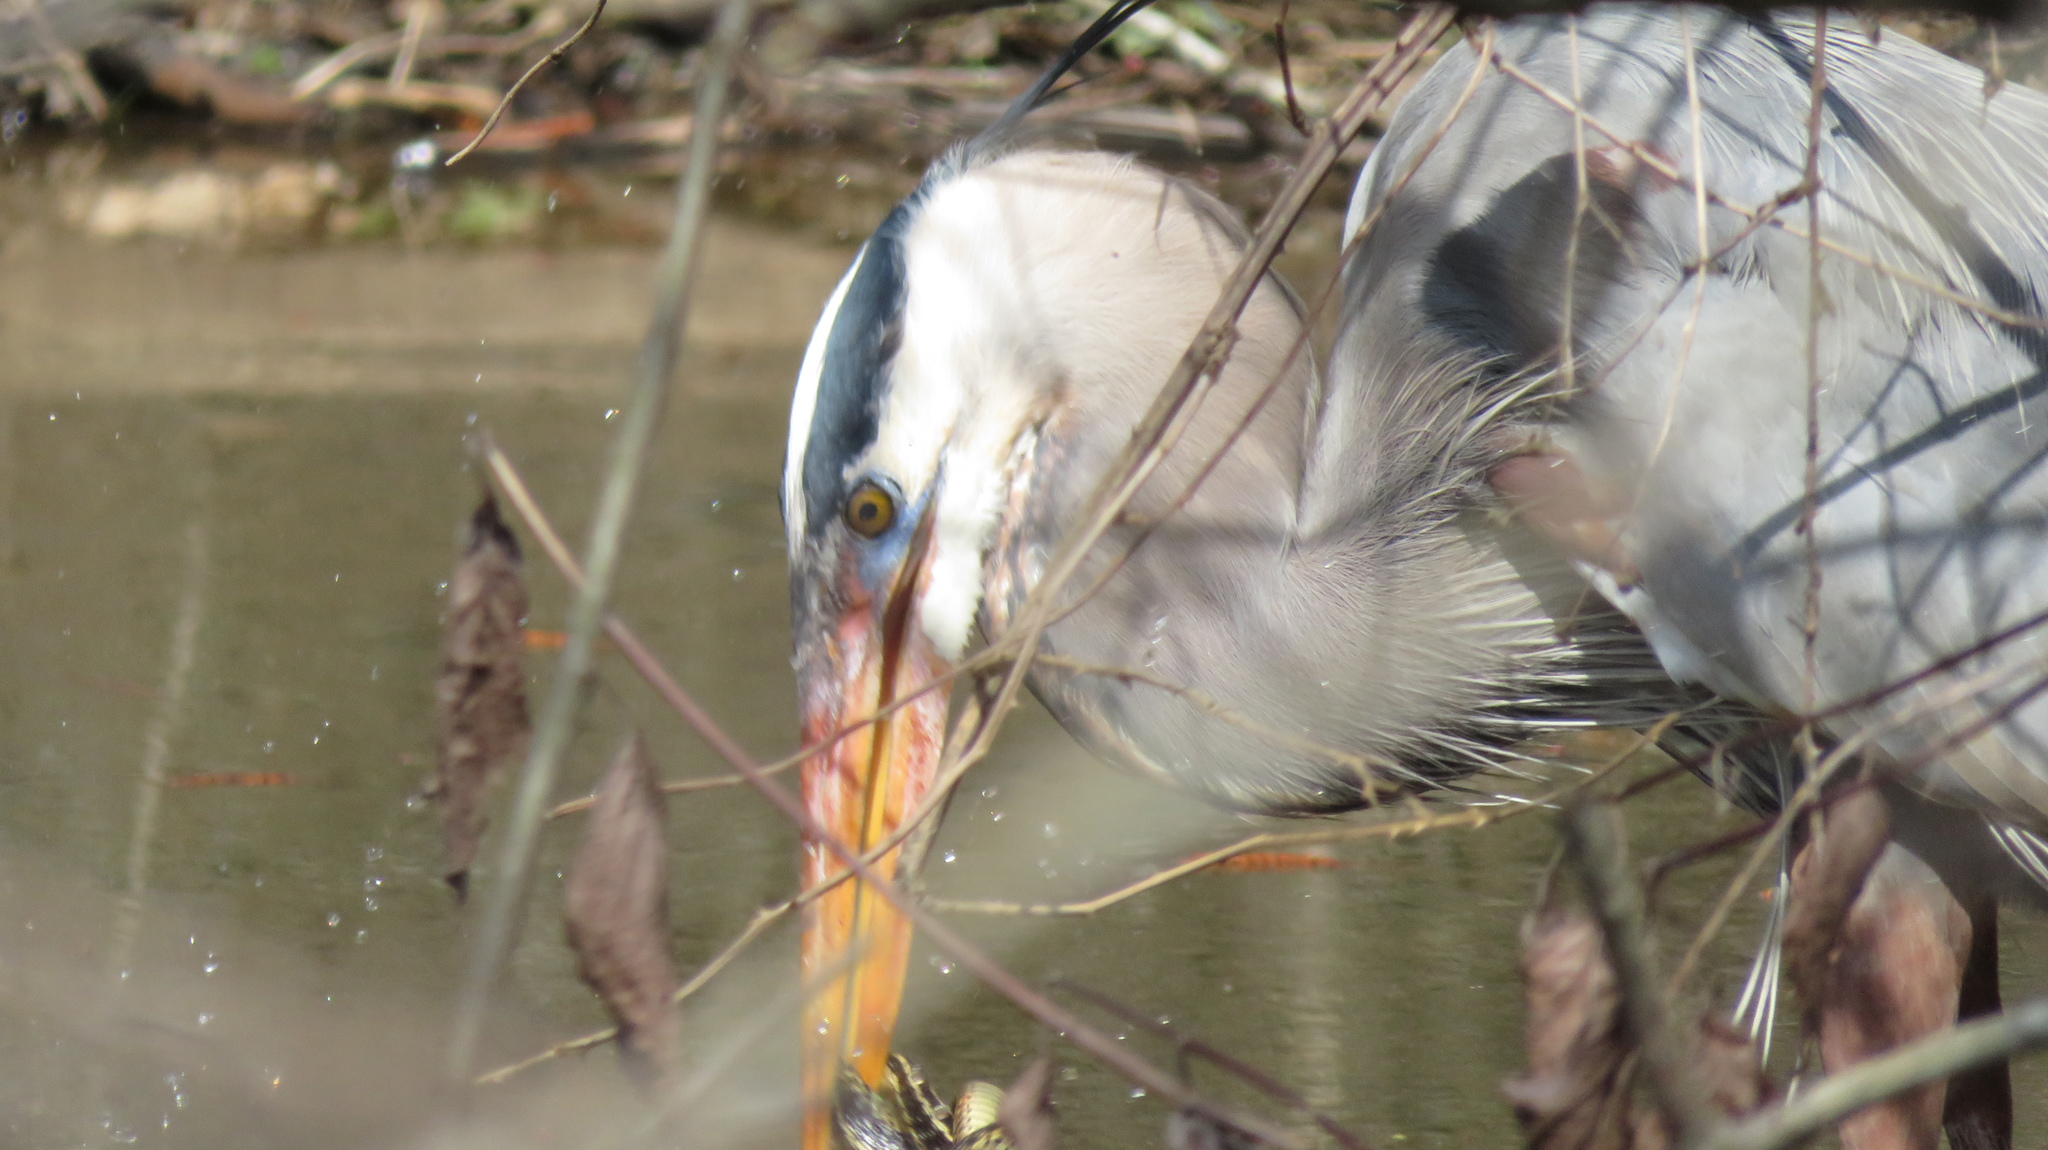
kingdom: Animalia
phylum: Chordata
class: Aves
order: Pelecaniformes
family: Ardeidae
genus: Ardea
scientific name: Ardea herodias
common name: Great blue heron
